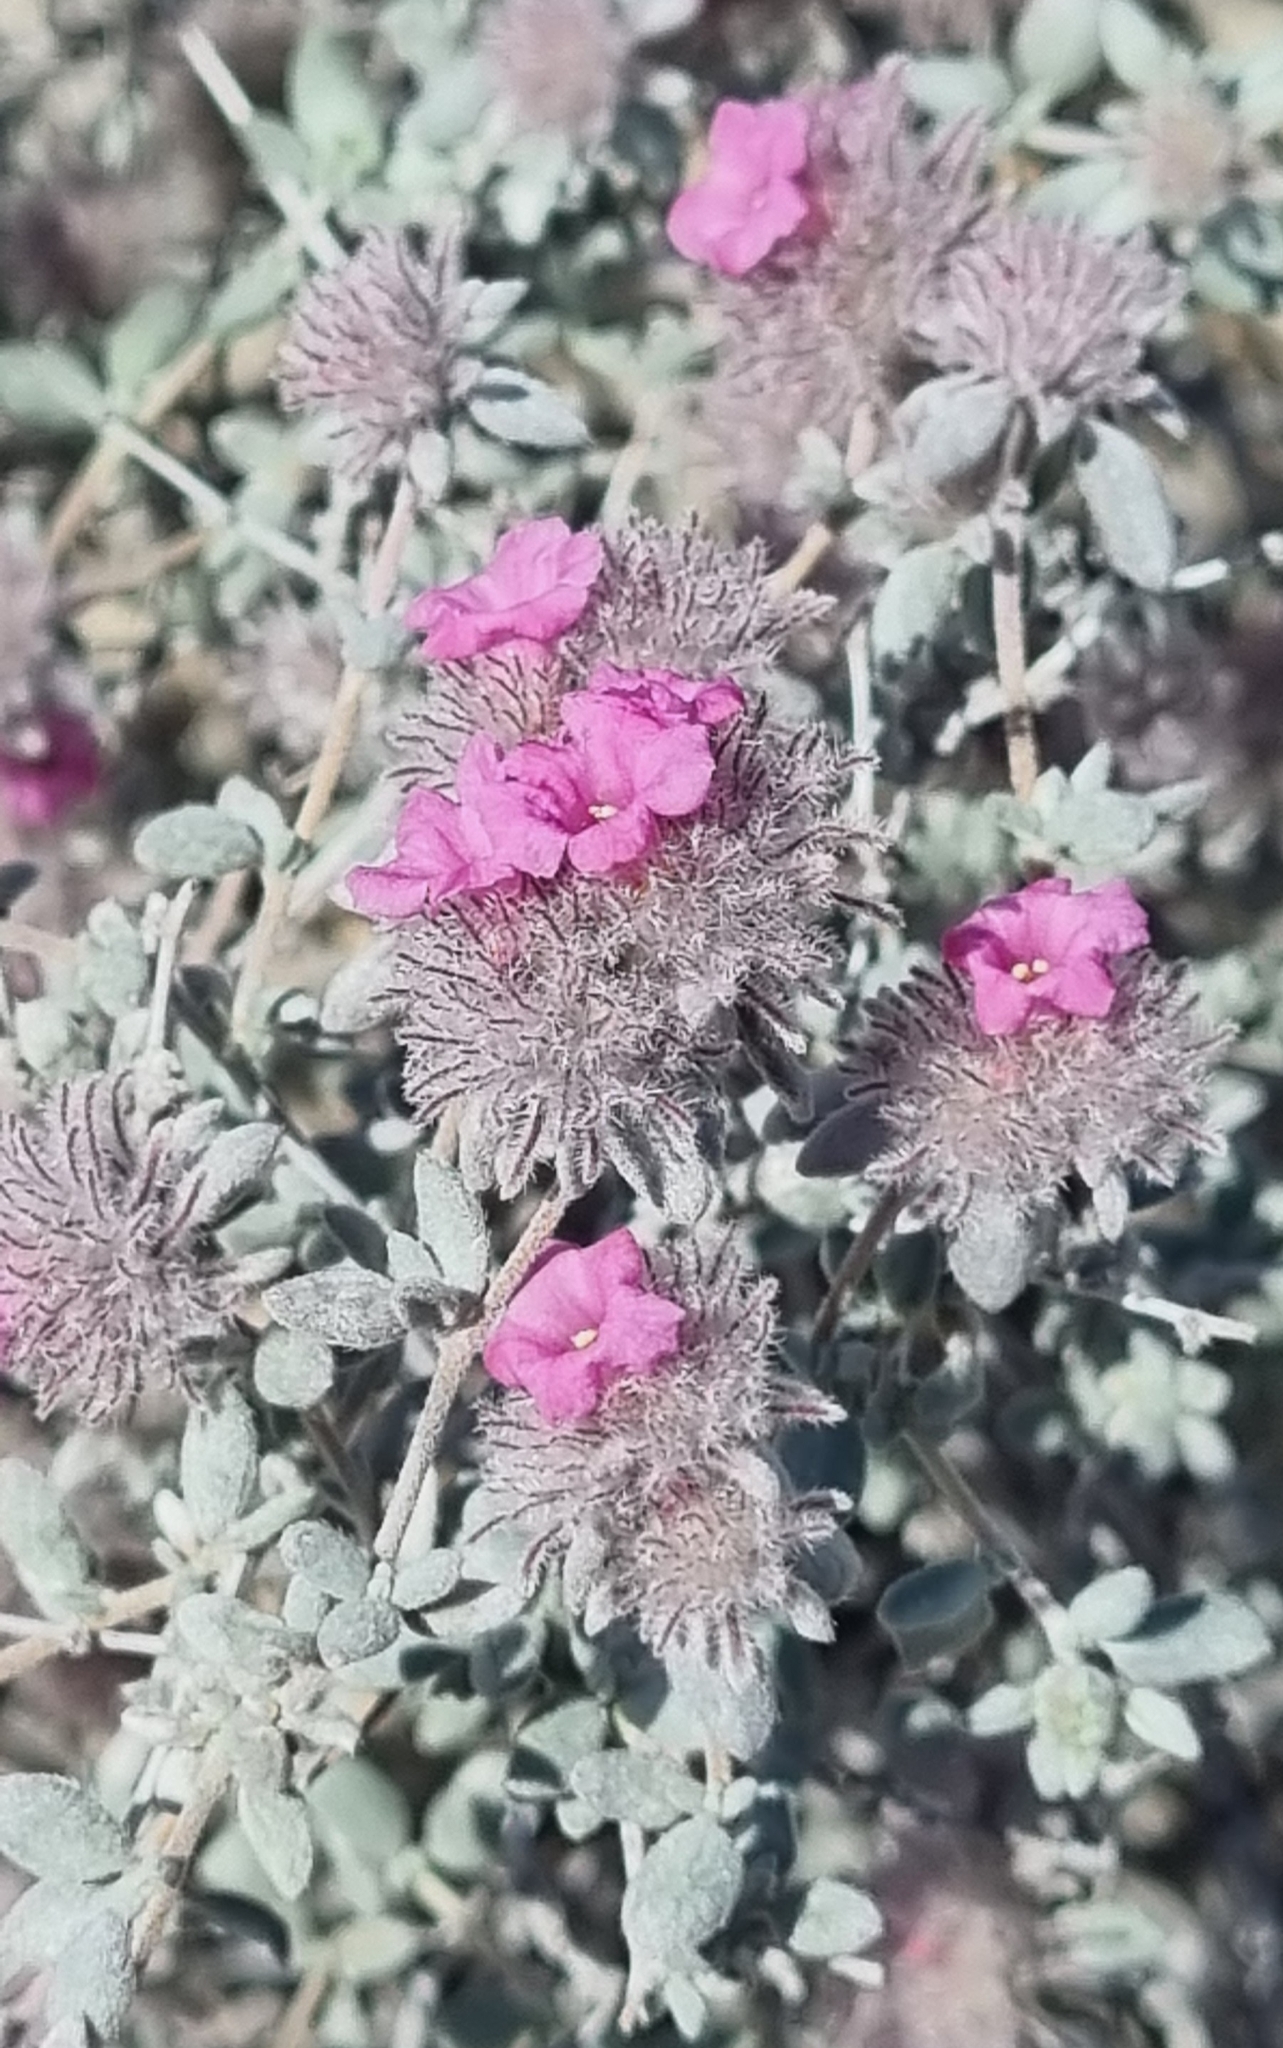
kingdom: Plantae
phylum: Tracheophyta
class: Magnoliopsida
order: Boraginales
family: Ehretiaceae
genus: Tiquilia
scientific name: Tiquilia greggii
